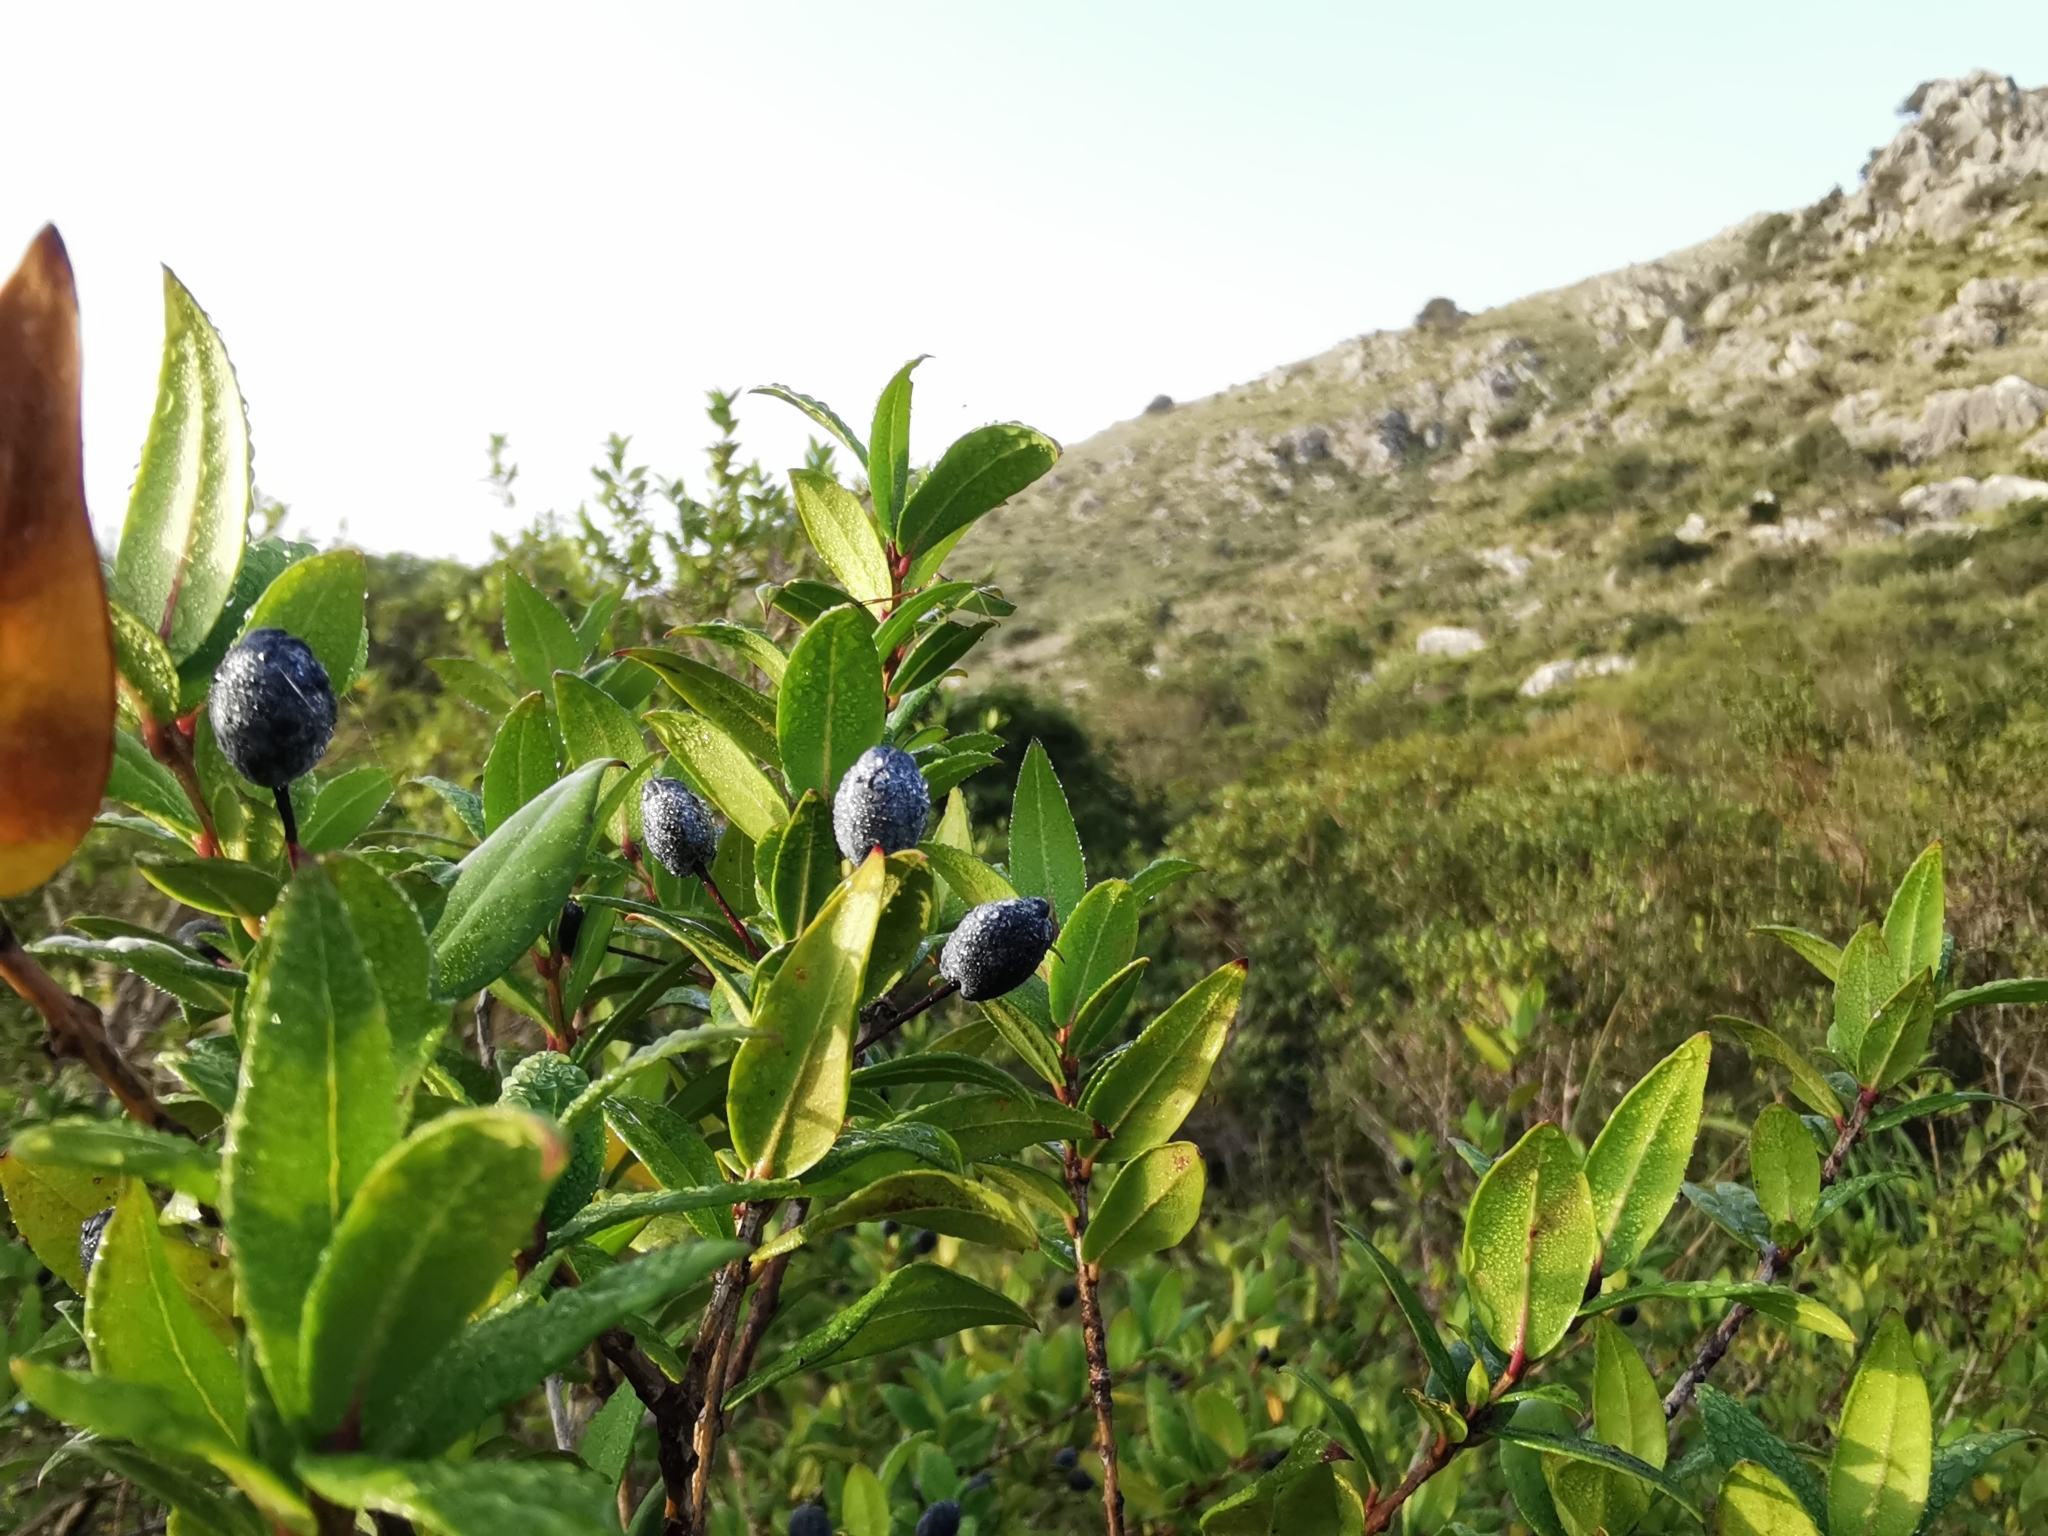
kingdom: Plantae
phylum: Tracheophyta
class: Magnoliopsida
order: Myrtales
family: Myrtaceae
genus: Myrtus
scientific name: Myrtus communis
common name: Myrtle
